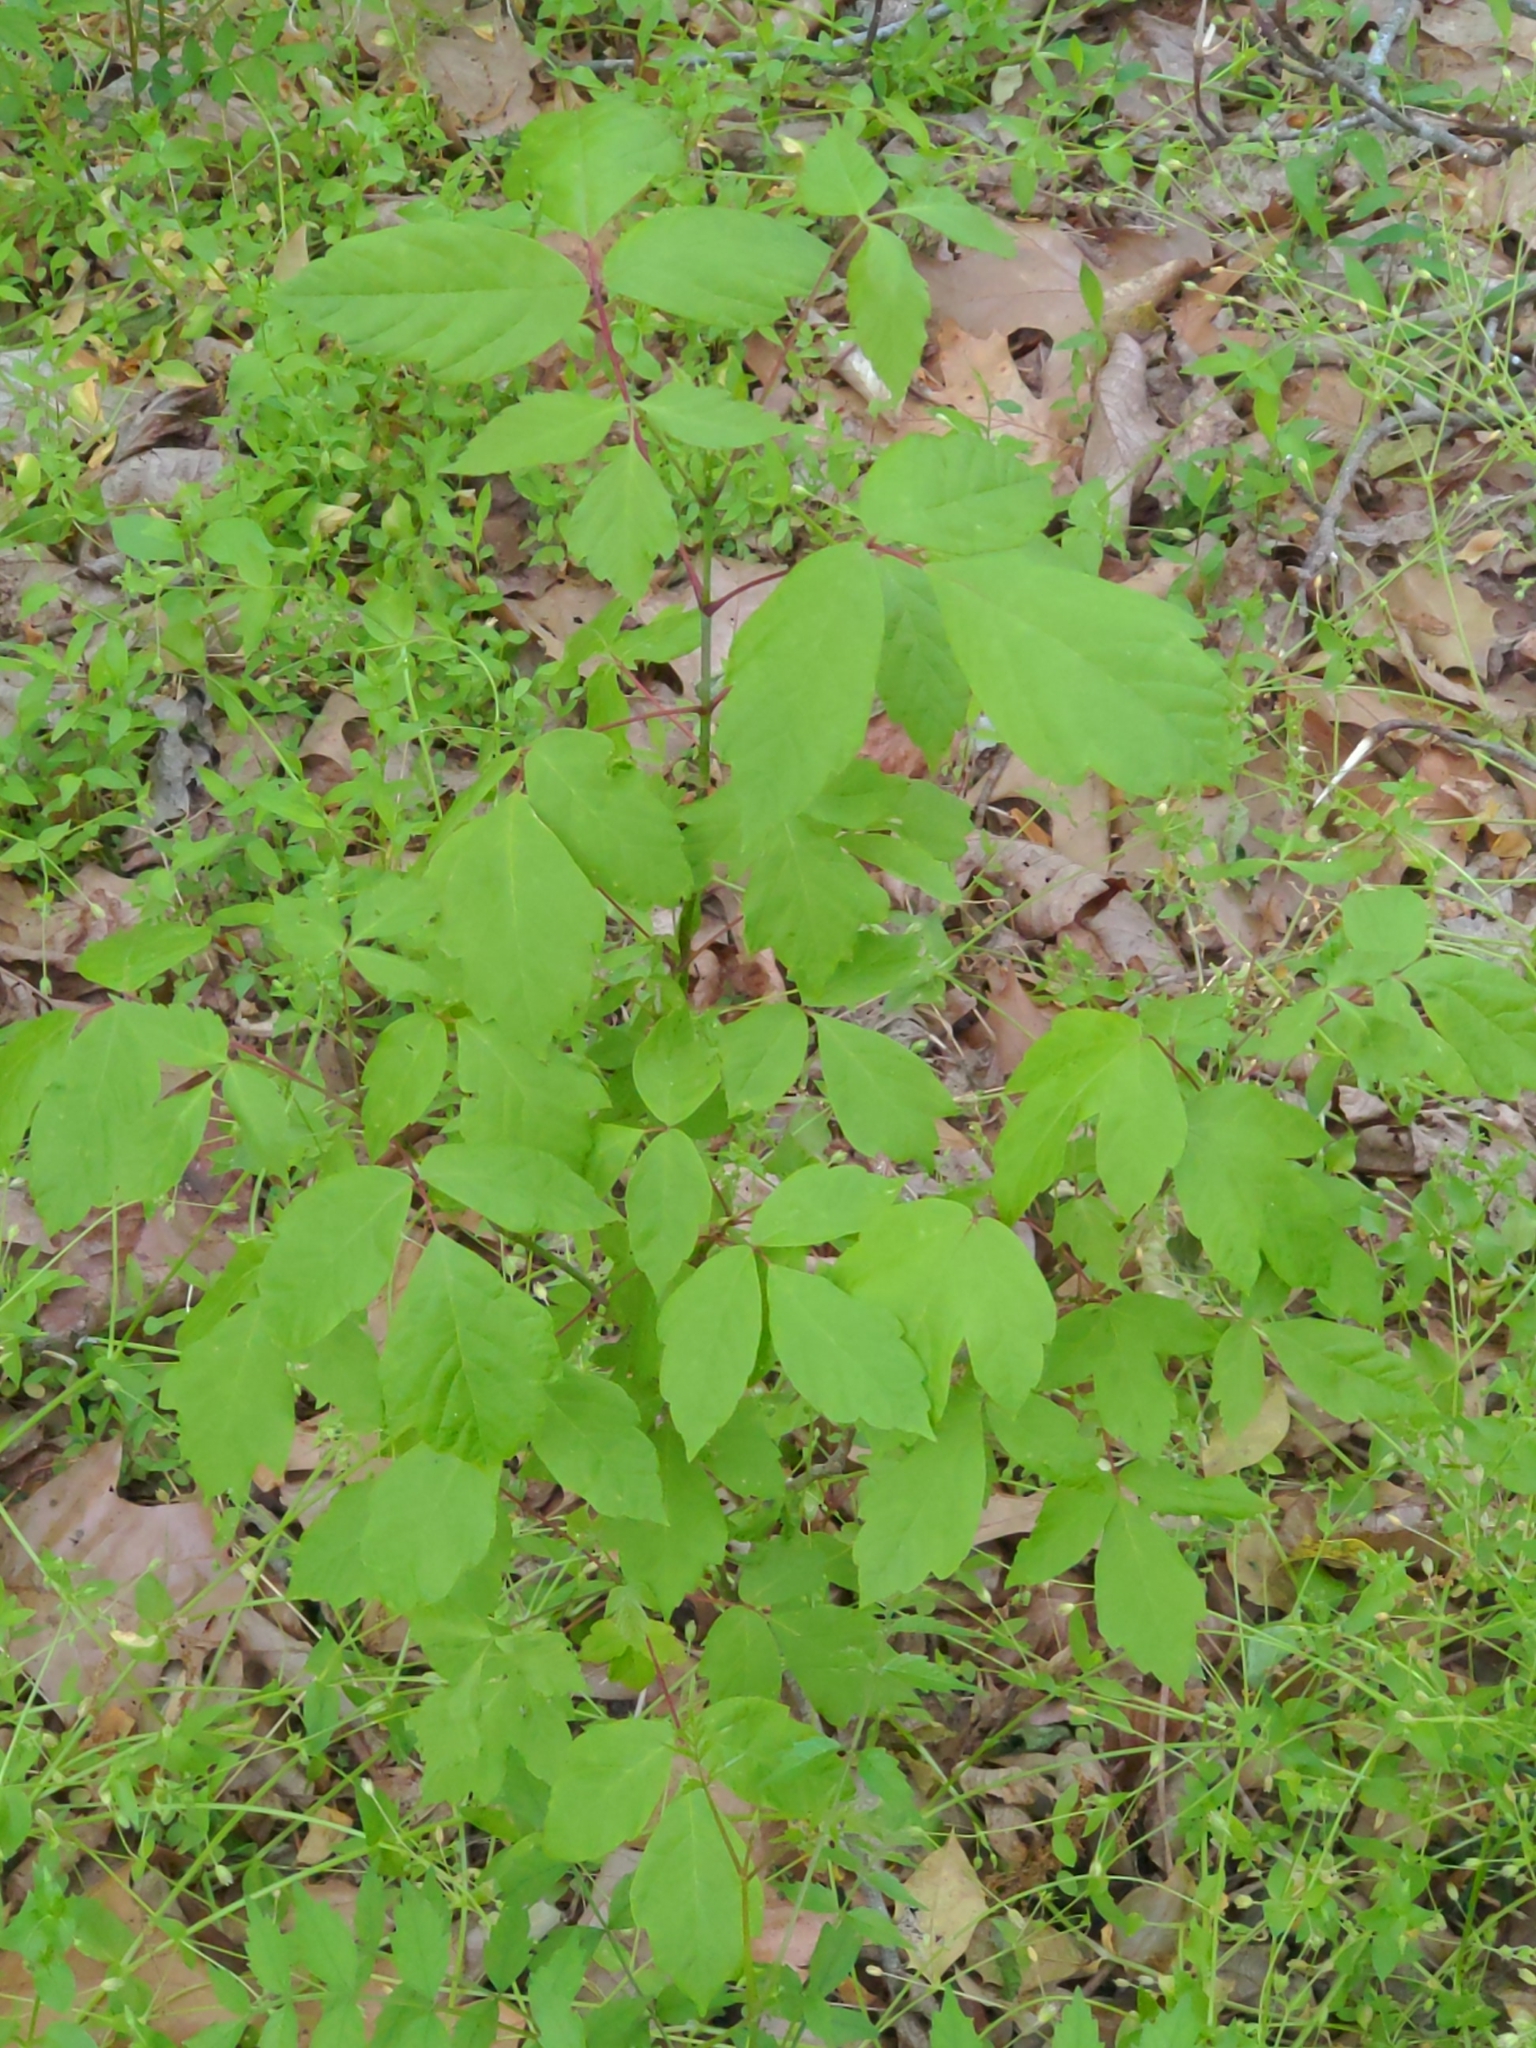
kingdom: Plantae
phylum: Tracheophyta
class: Magnoliopsida
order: Sapindales
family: Sapindaceae
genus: Acer
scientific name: Acer negundo
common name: Ashleaf maple
